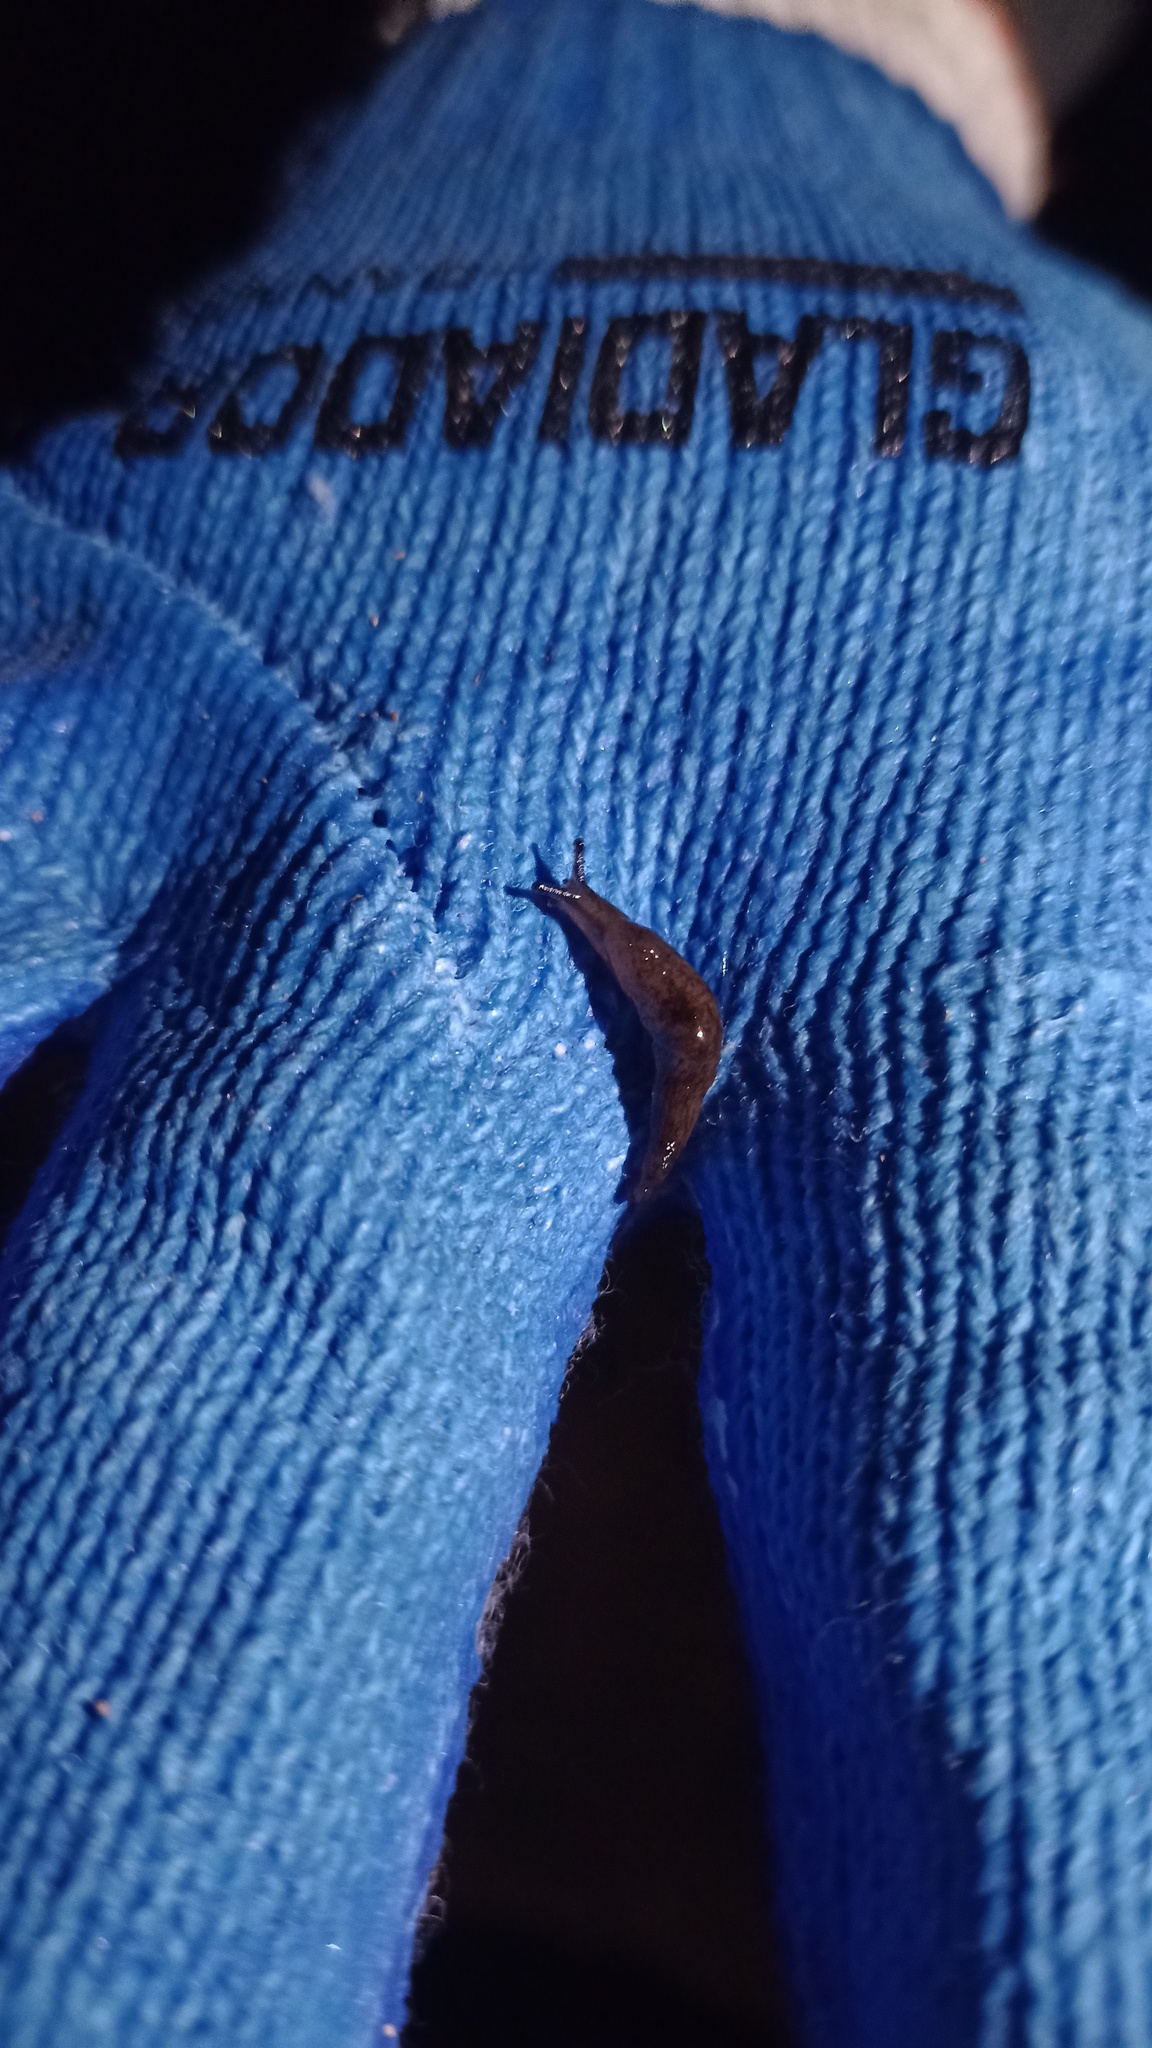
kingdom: Animalia
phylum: Mollusca
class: Gastropoda
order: Stylommatophora
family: Agriolimacidae
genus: Deroceras
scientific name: Deroceras laeve
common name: Marsh slug
